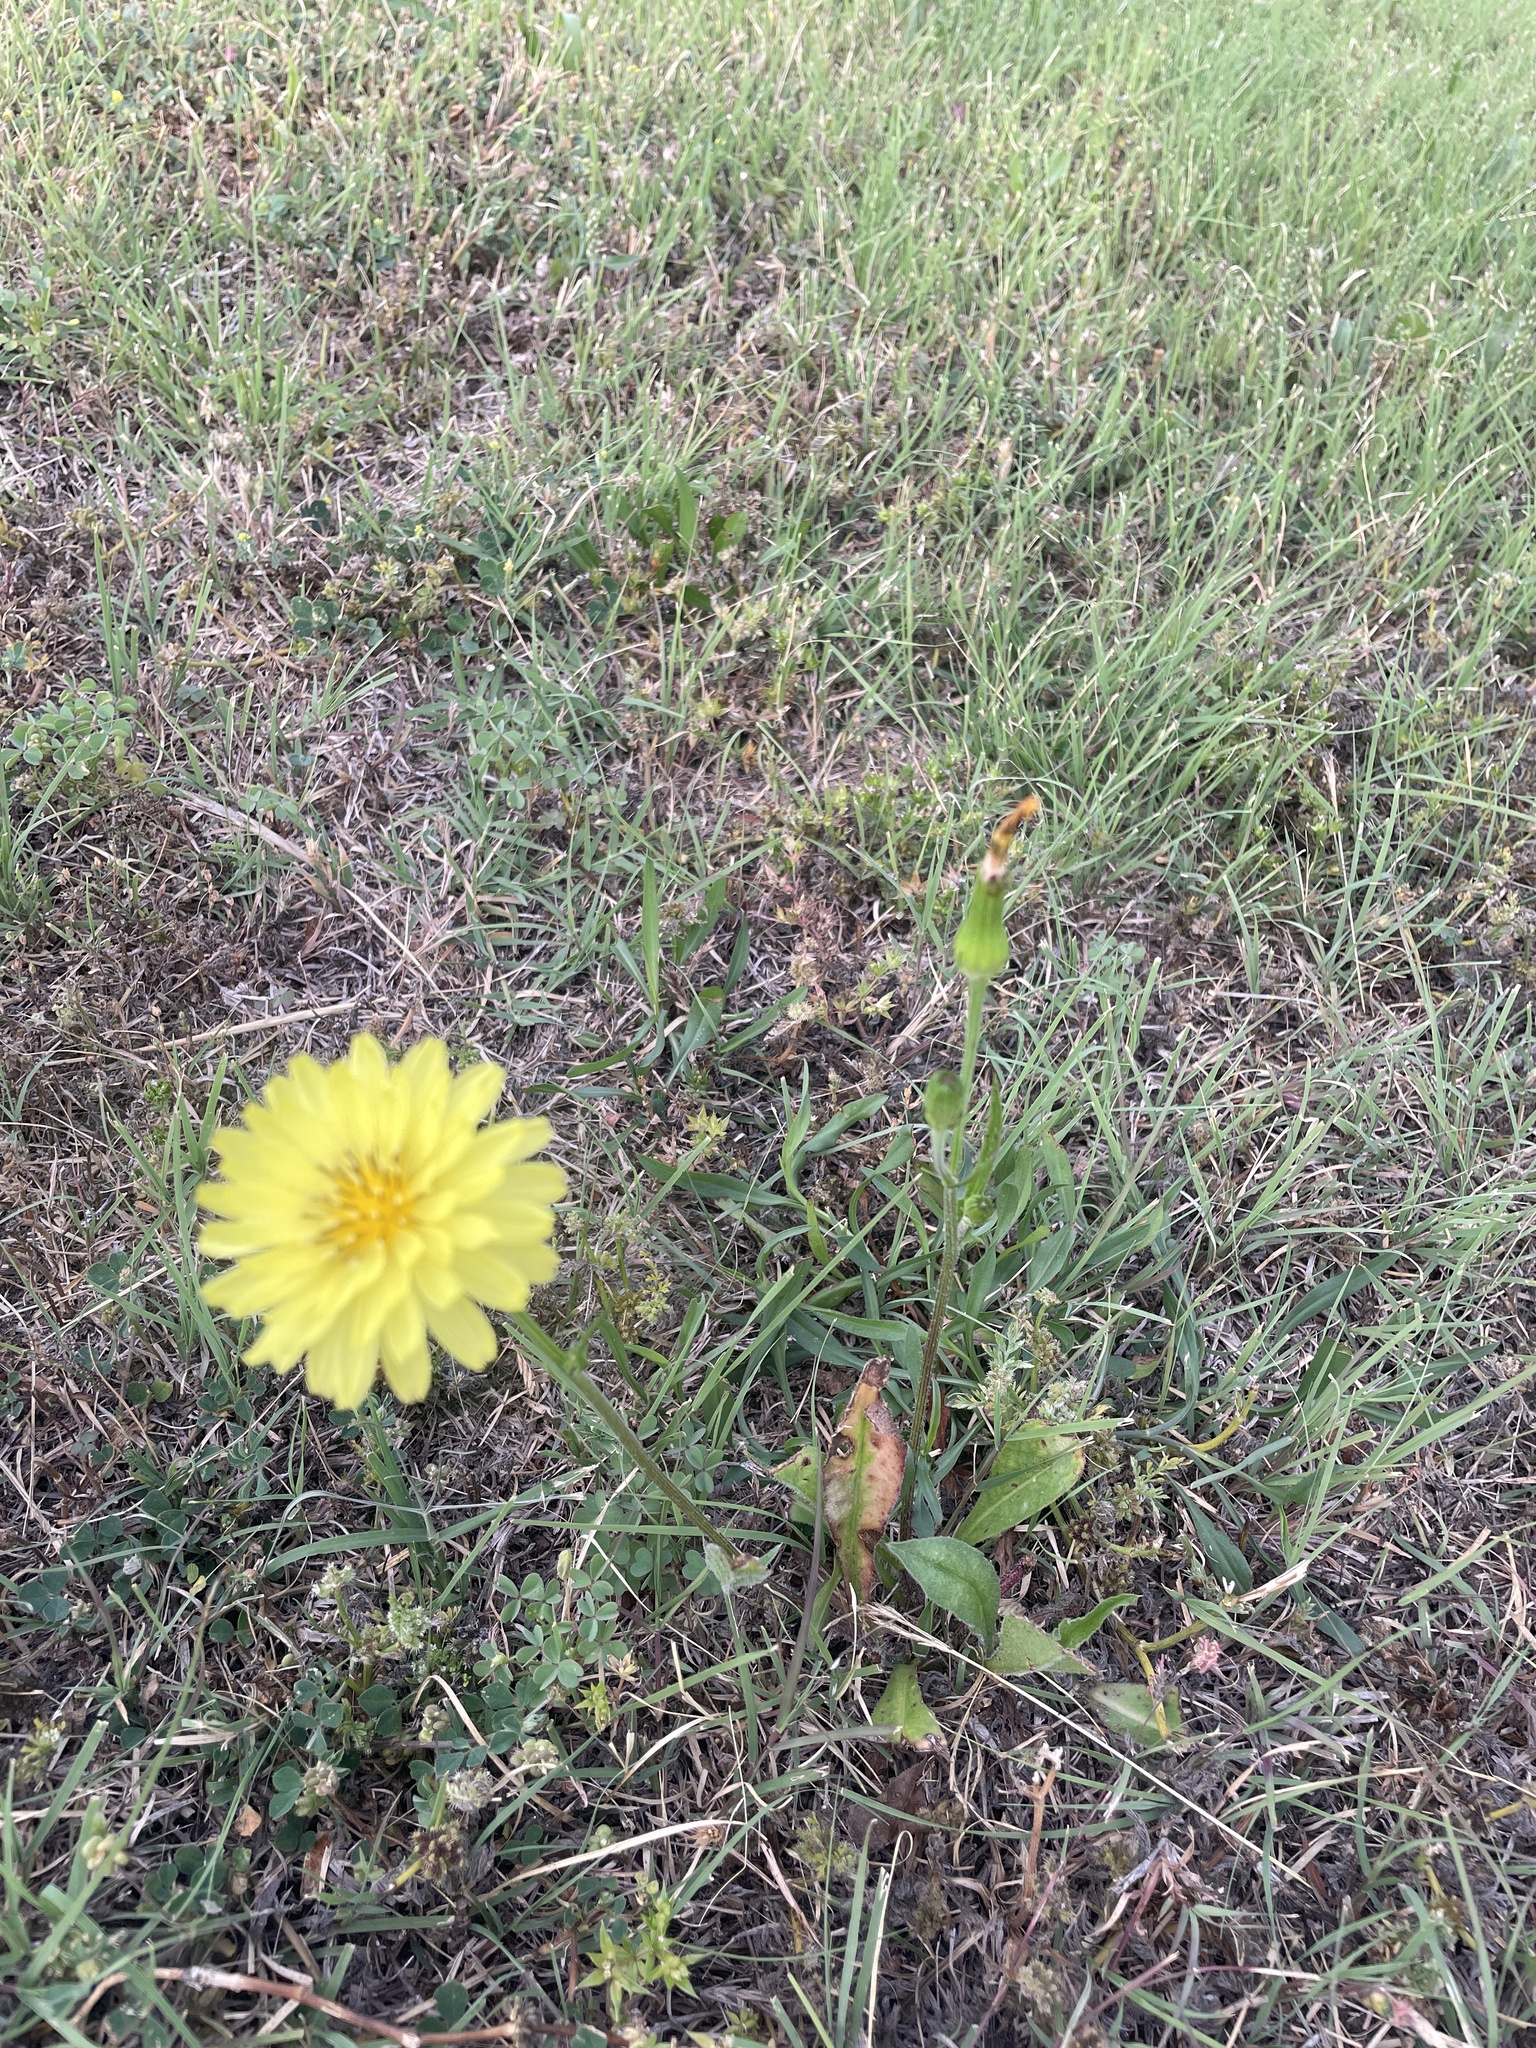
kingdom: Plantae
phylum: Tracheophyta
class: Magnoliopsida
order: Asterales
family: Asteraceae
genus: Pyrrhopappus
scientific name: Pyrrhopappus pauciflorus
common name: Texas false dandelion
